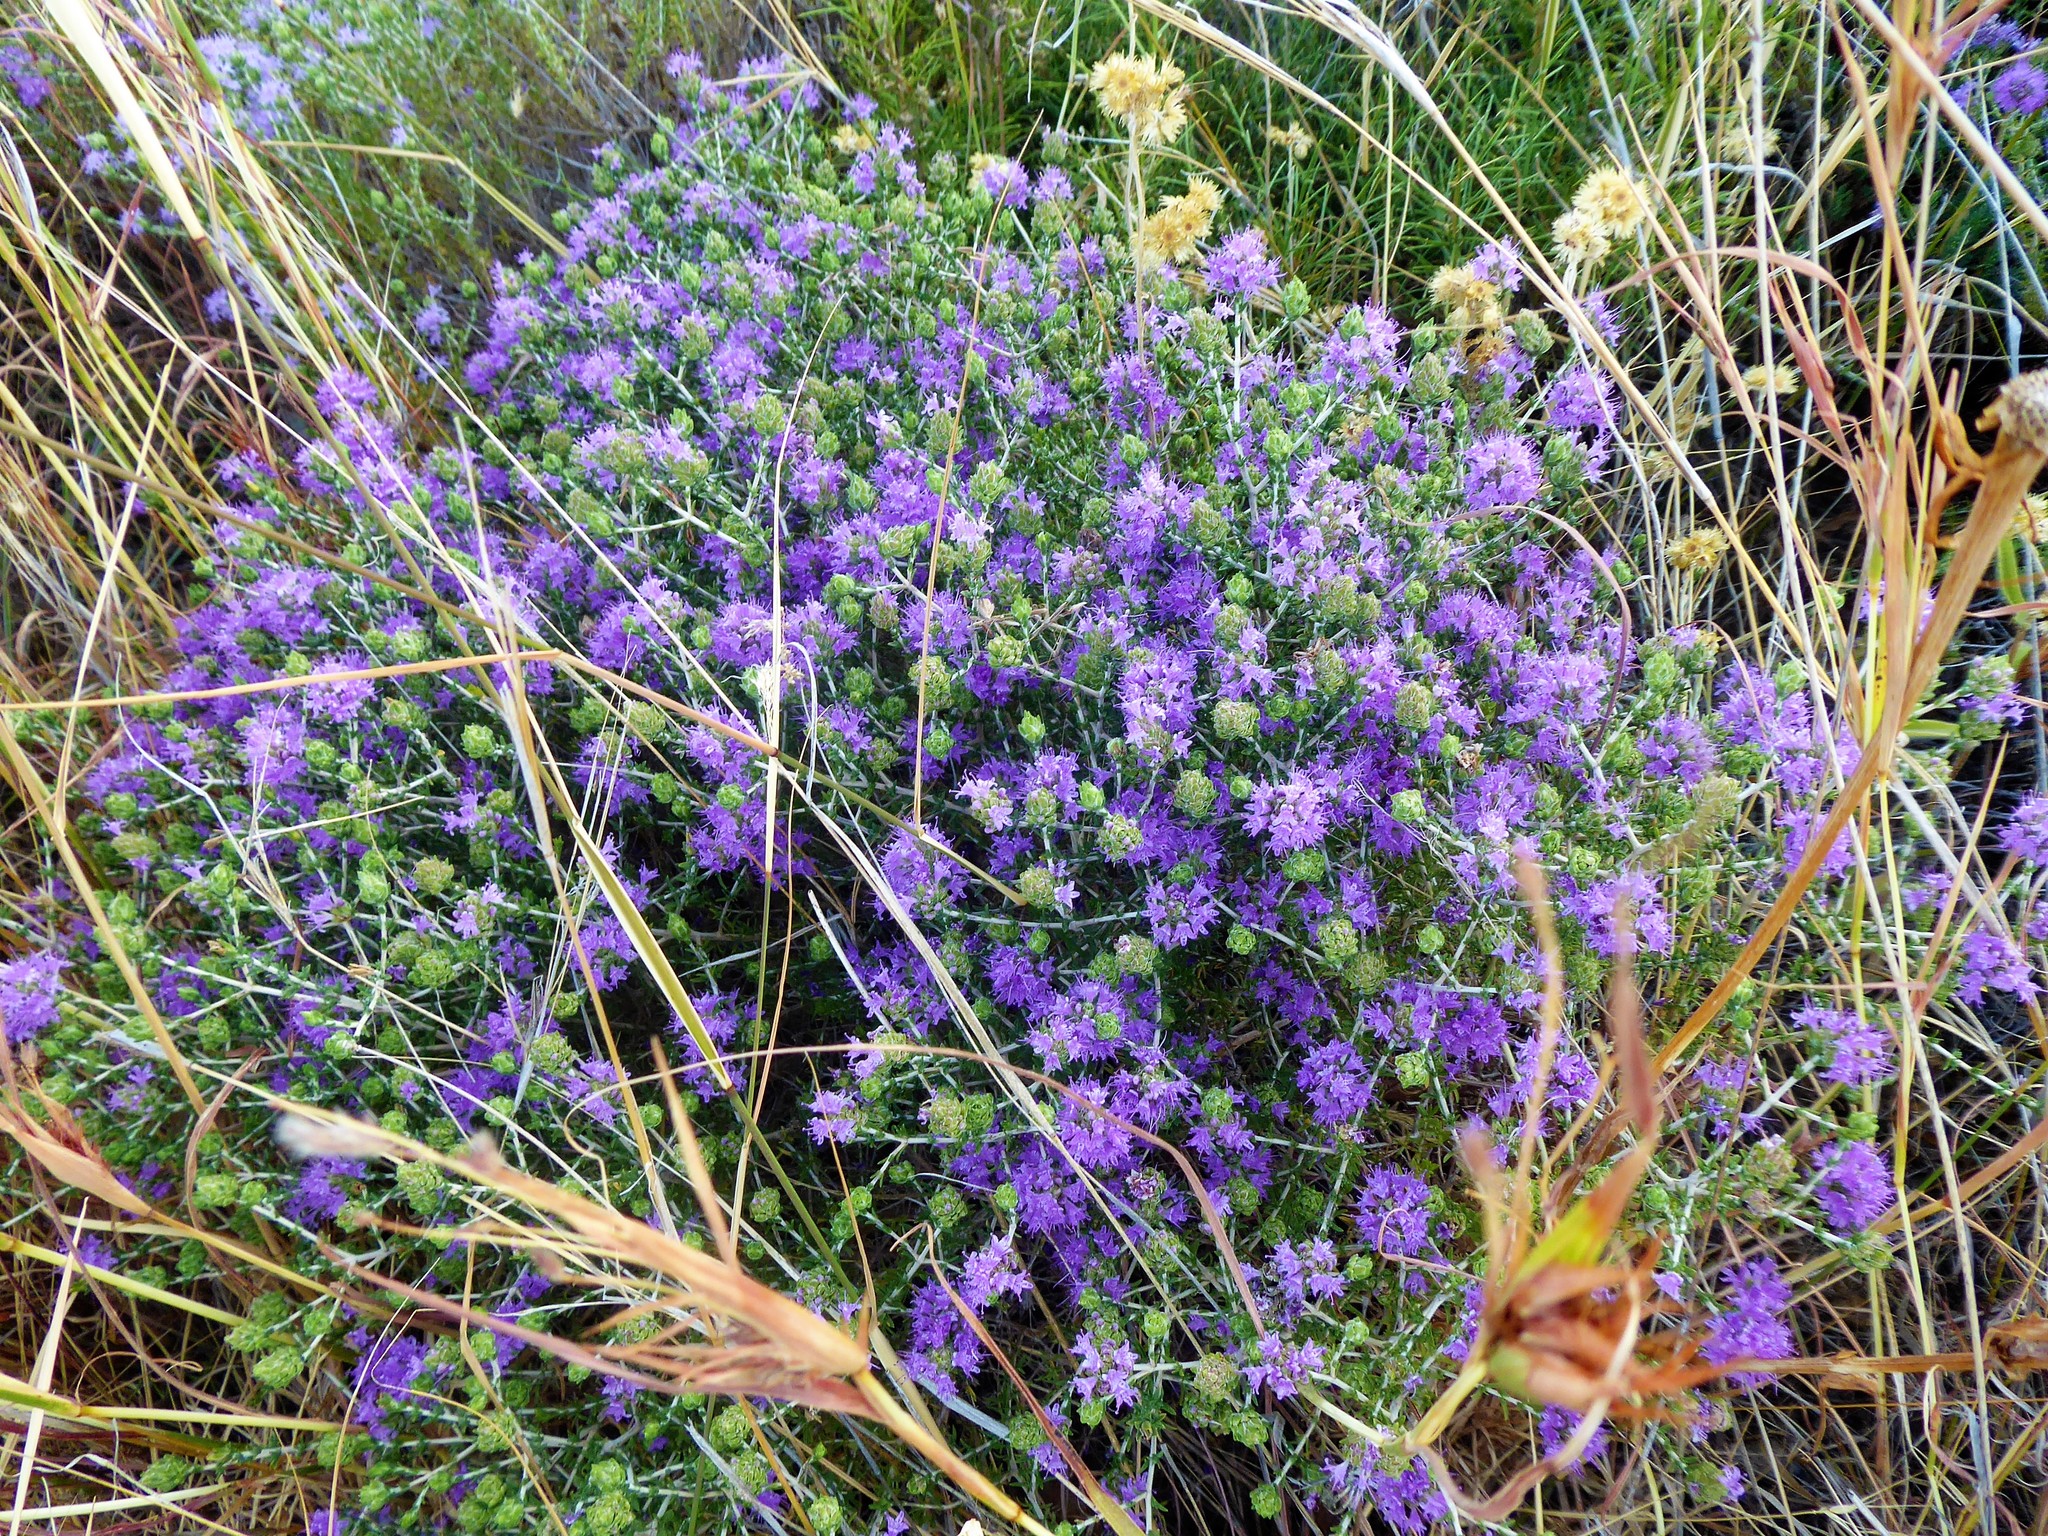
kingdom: Plantae
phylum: Tracheophyta
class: Magnoliopsida
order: Lamiales
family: Lamiaceae
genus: Thymbra
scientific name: Thymbra capitata
